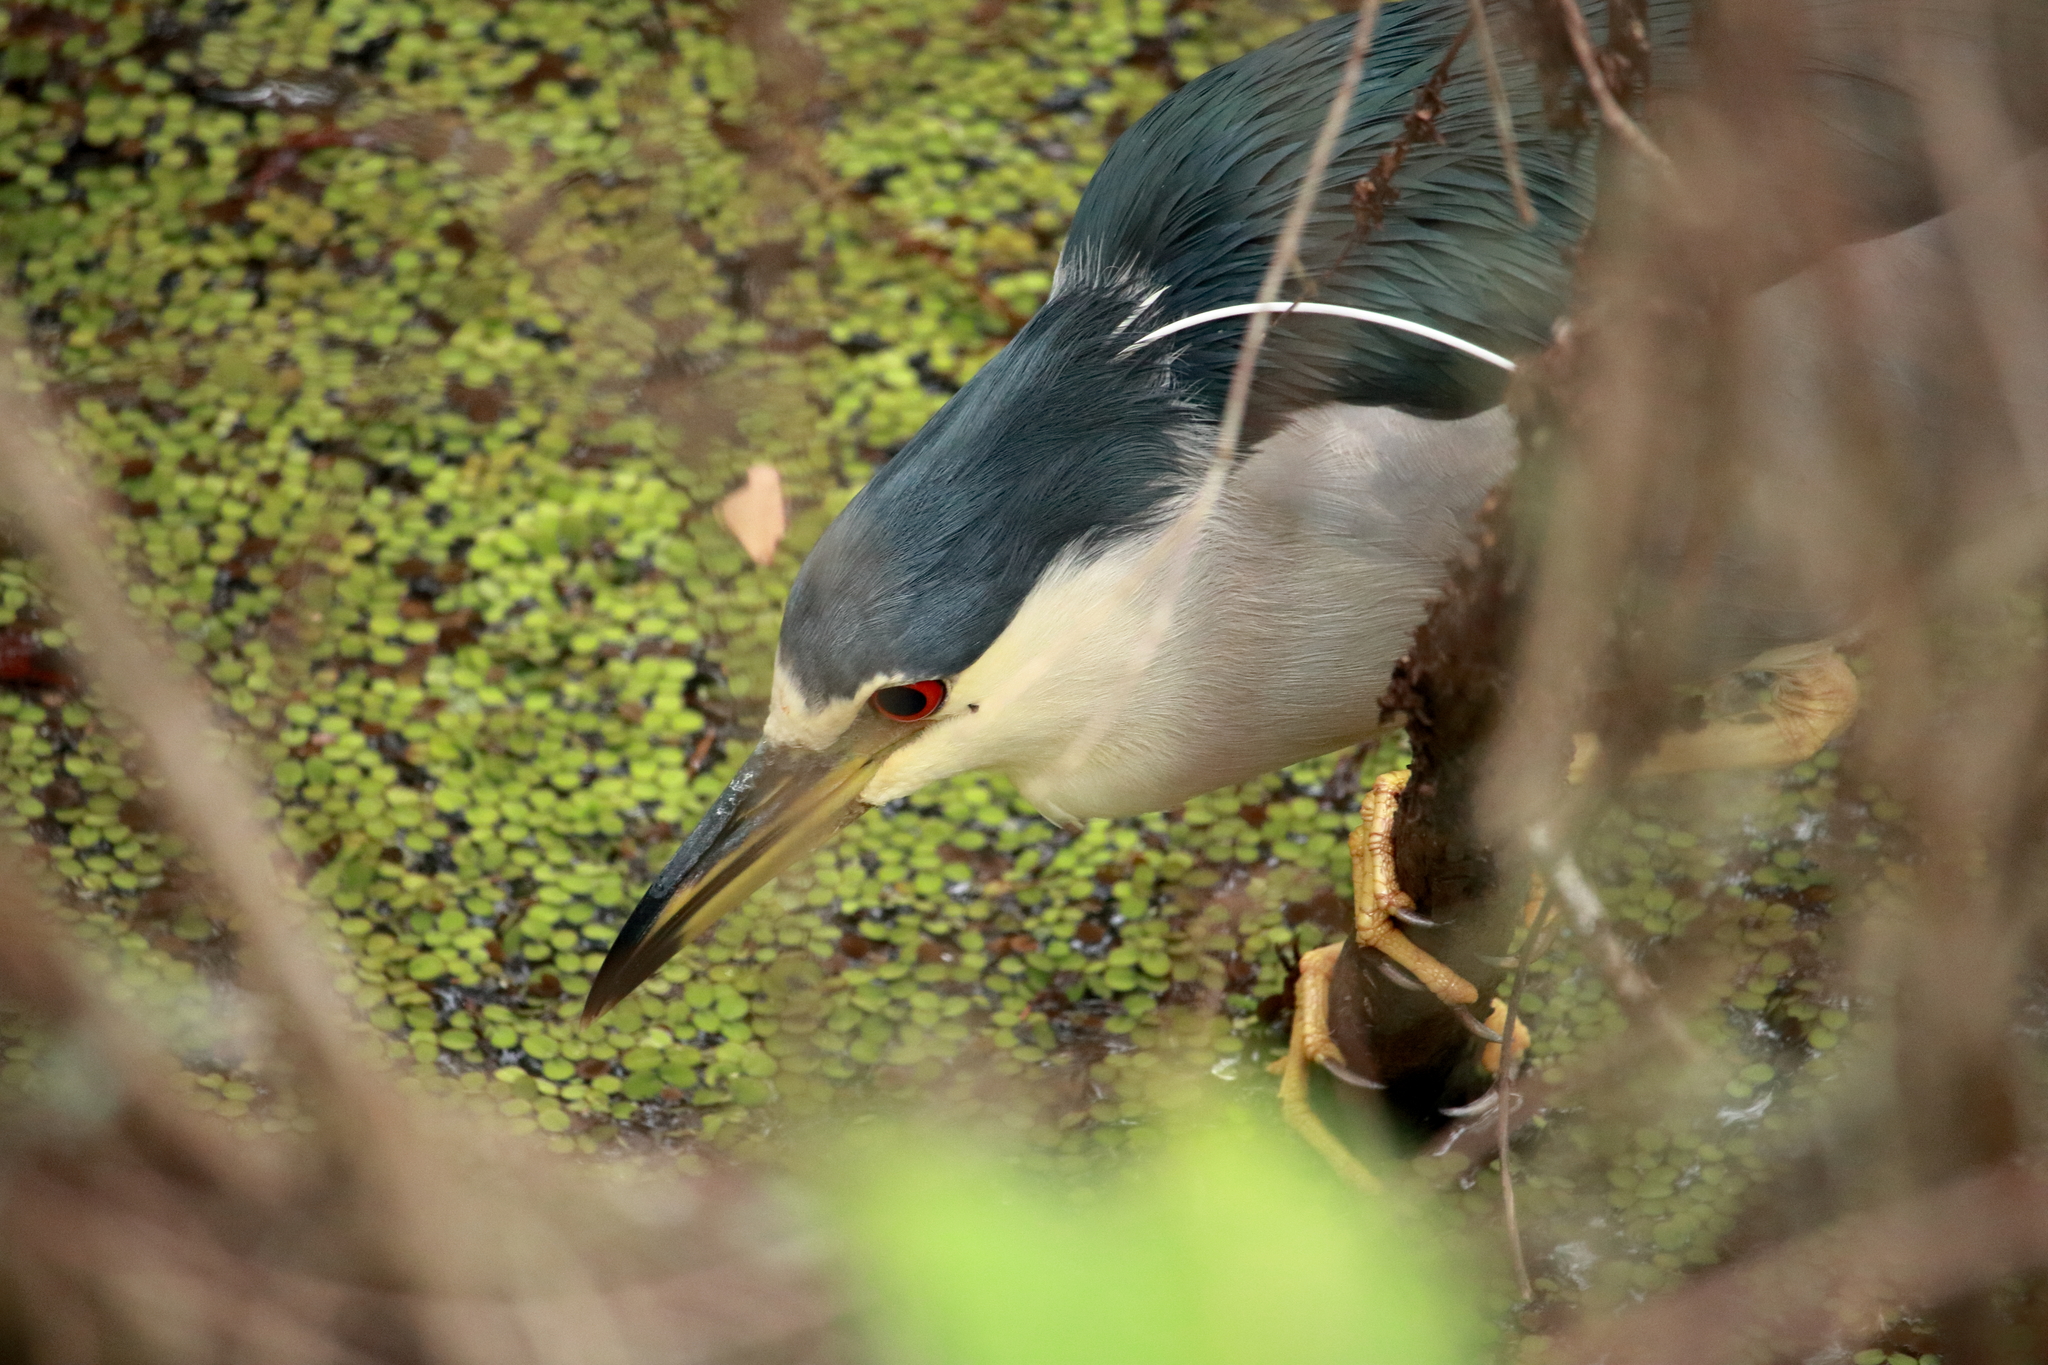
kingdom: Animalia
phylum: Chordata
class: Aves
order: Pelecaniformes
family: Ardeidae
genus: Nycticorax
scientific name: Nycticorax nycticorax
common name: Black-crowned night heron
